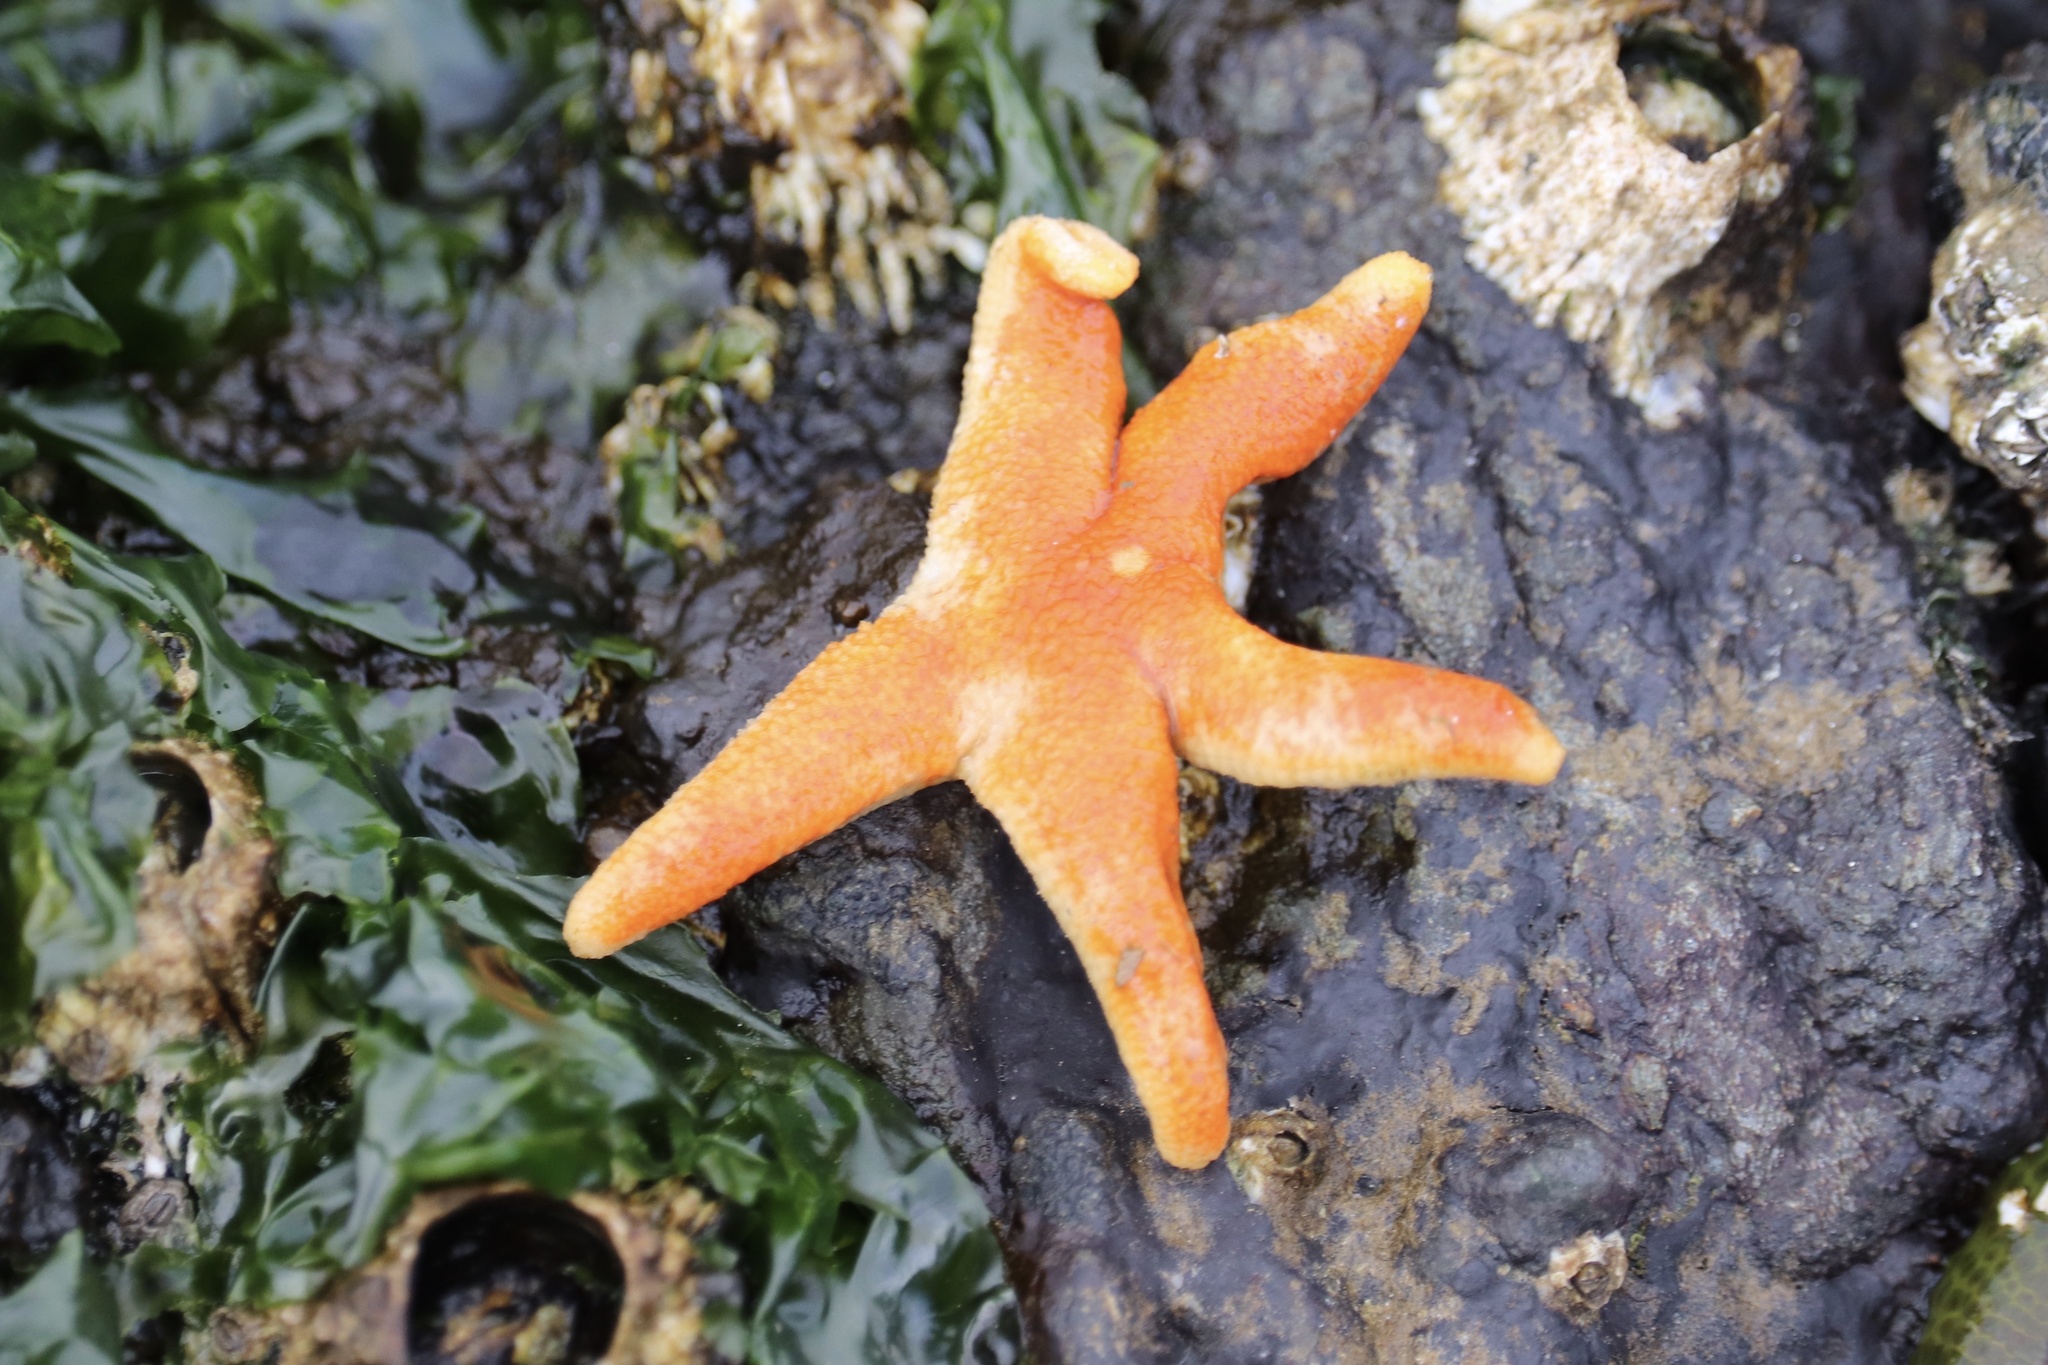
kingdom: Animalia
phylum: Echinodermata
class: Asteroidea
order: Spinulosida
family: Echinasteridae
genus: Henricia
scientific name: Henricia pumila
